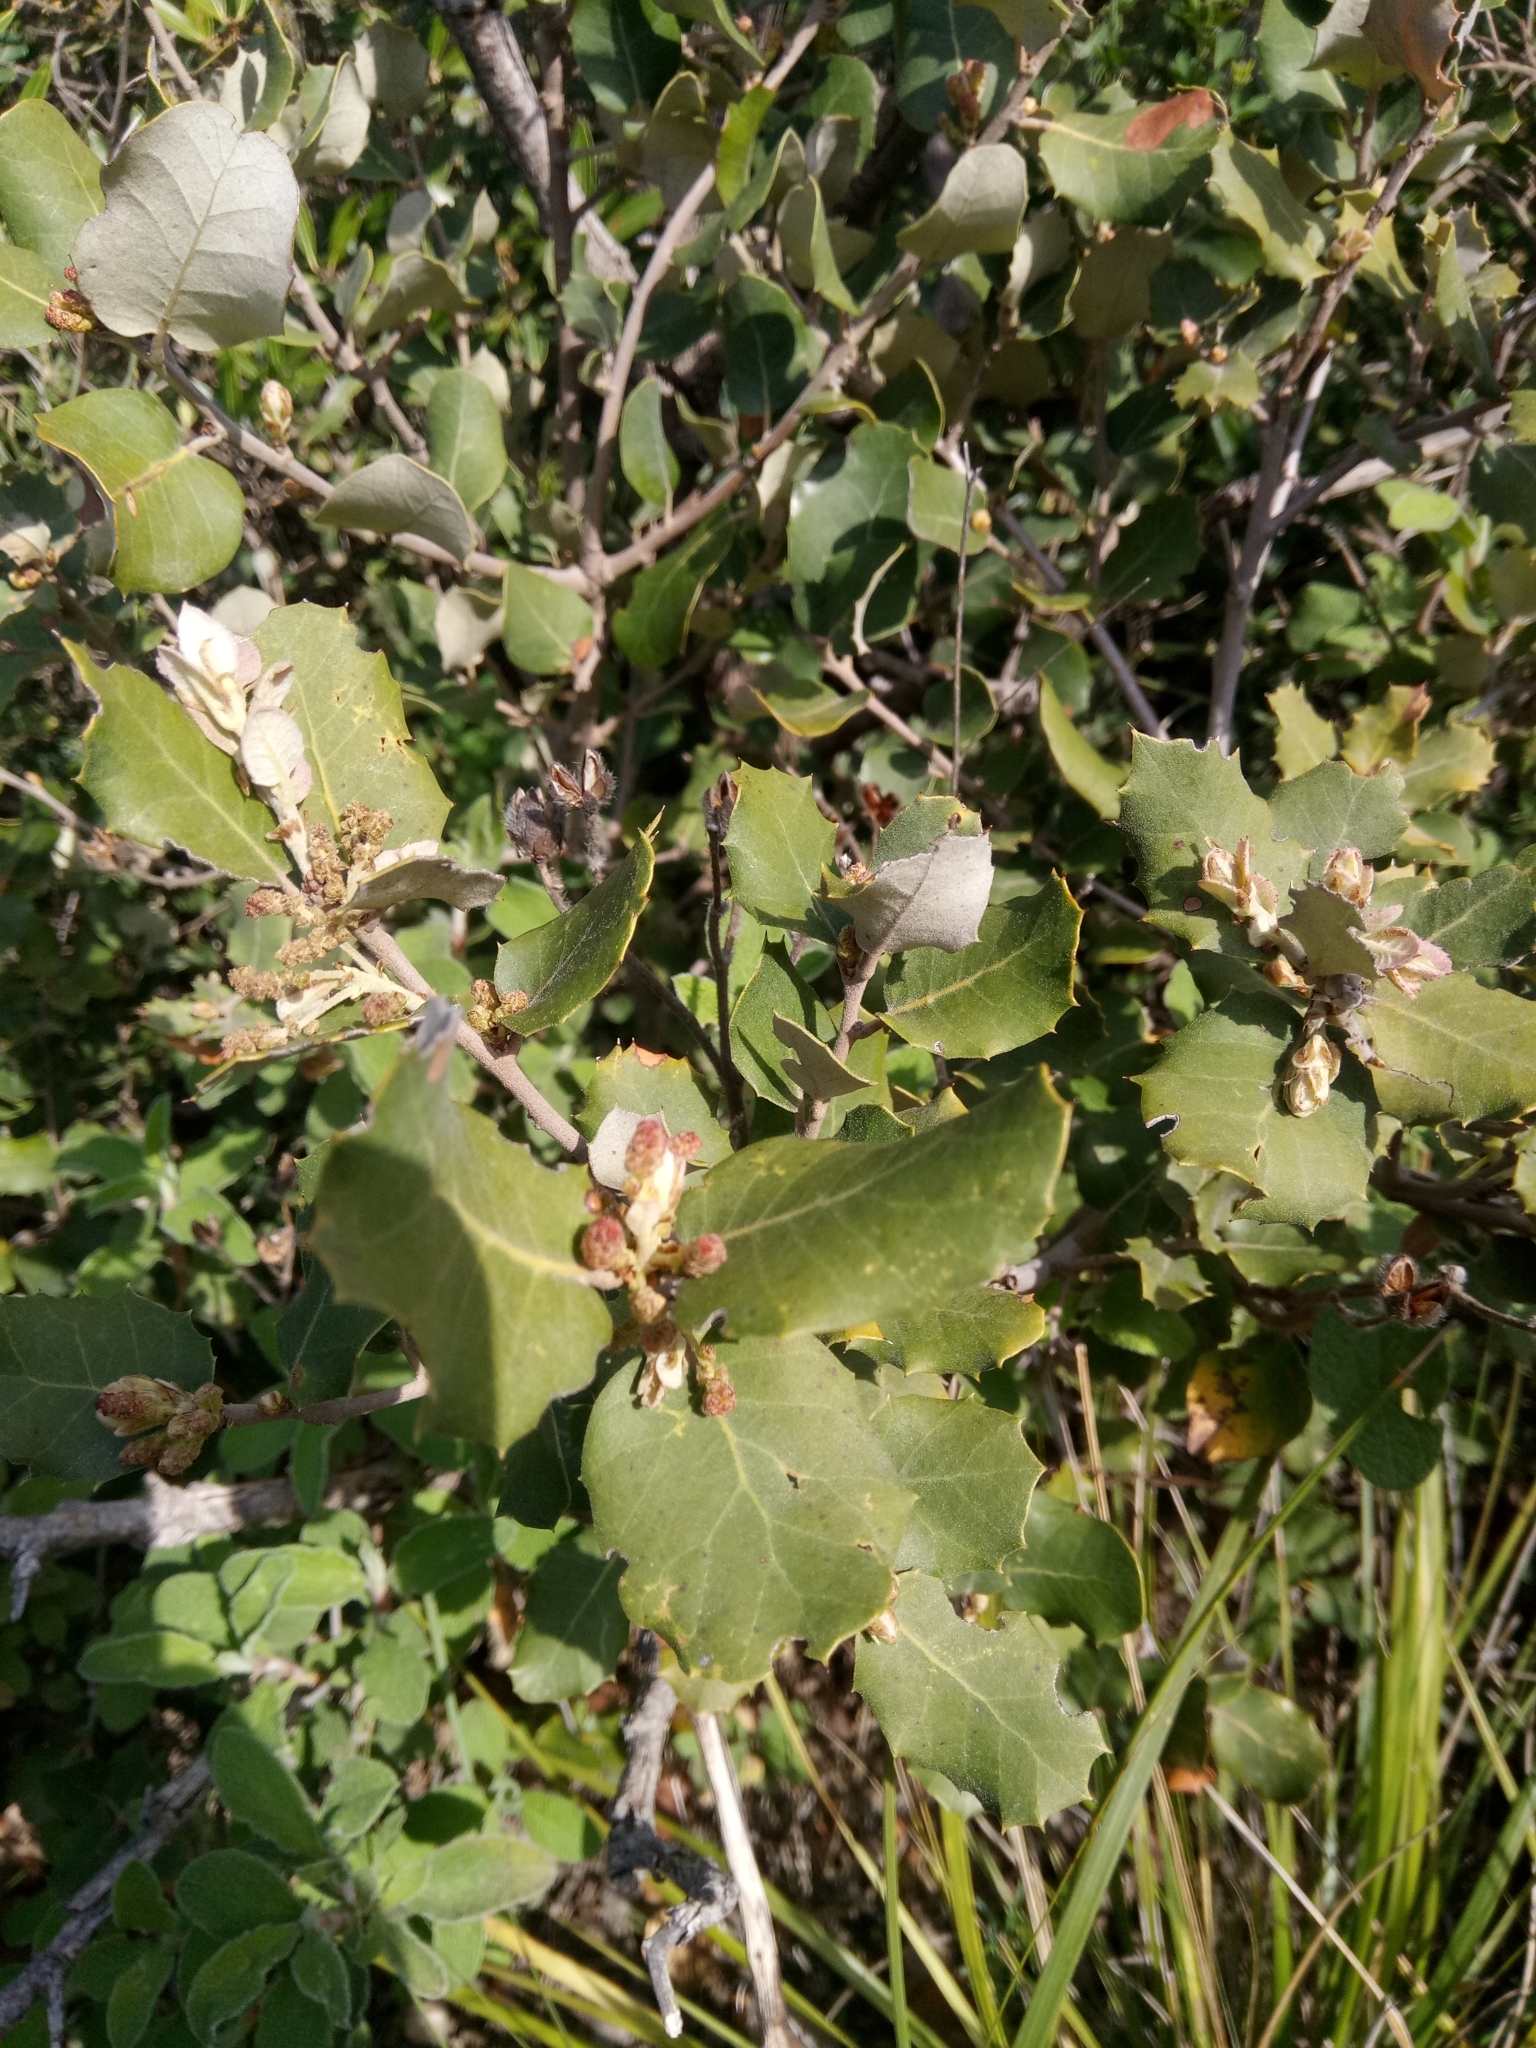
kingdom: Plantae
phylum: Tracheophyta
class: Magnoliopsida
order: Fagales
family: Fagaceae
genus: Quercus
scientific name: Quercus rotundifolia
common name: Holm oak
